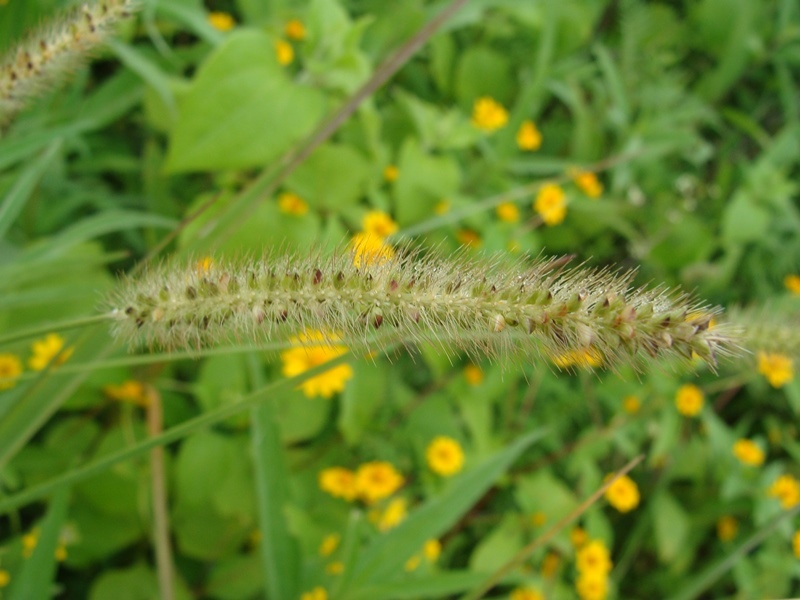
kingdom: Plantae
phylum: Tracheophyta
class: Liliopsida
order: Poales
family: Poaceae
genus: Setaria
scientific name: Setaria parviflora
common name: Knotroot bristle-grass
